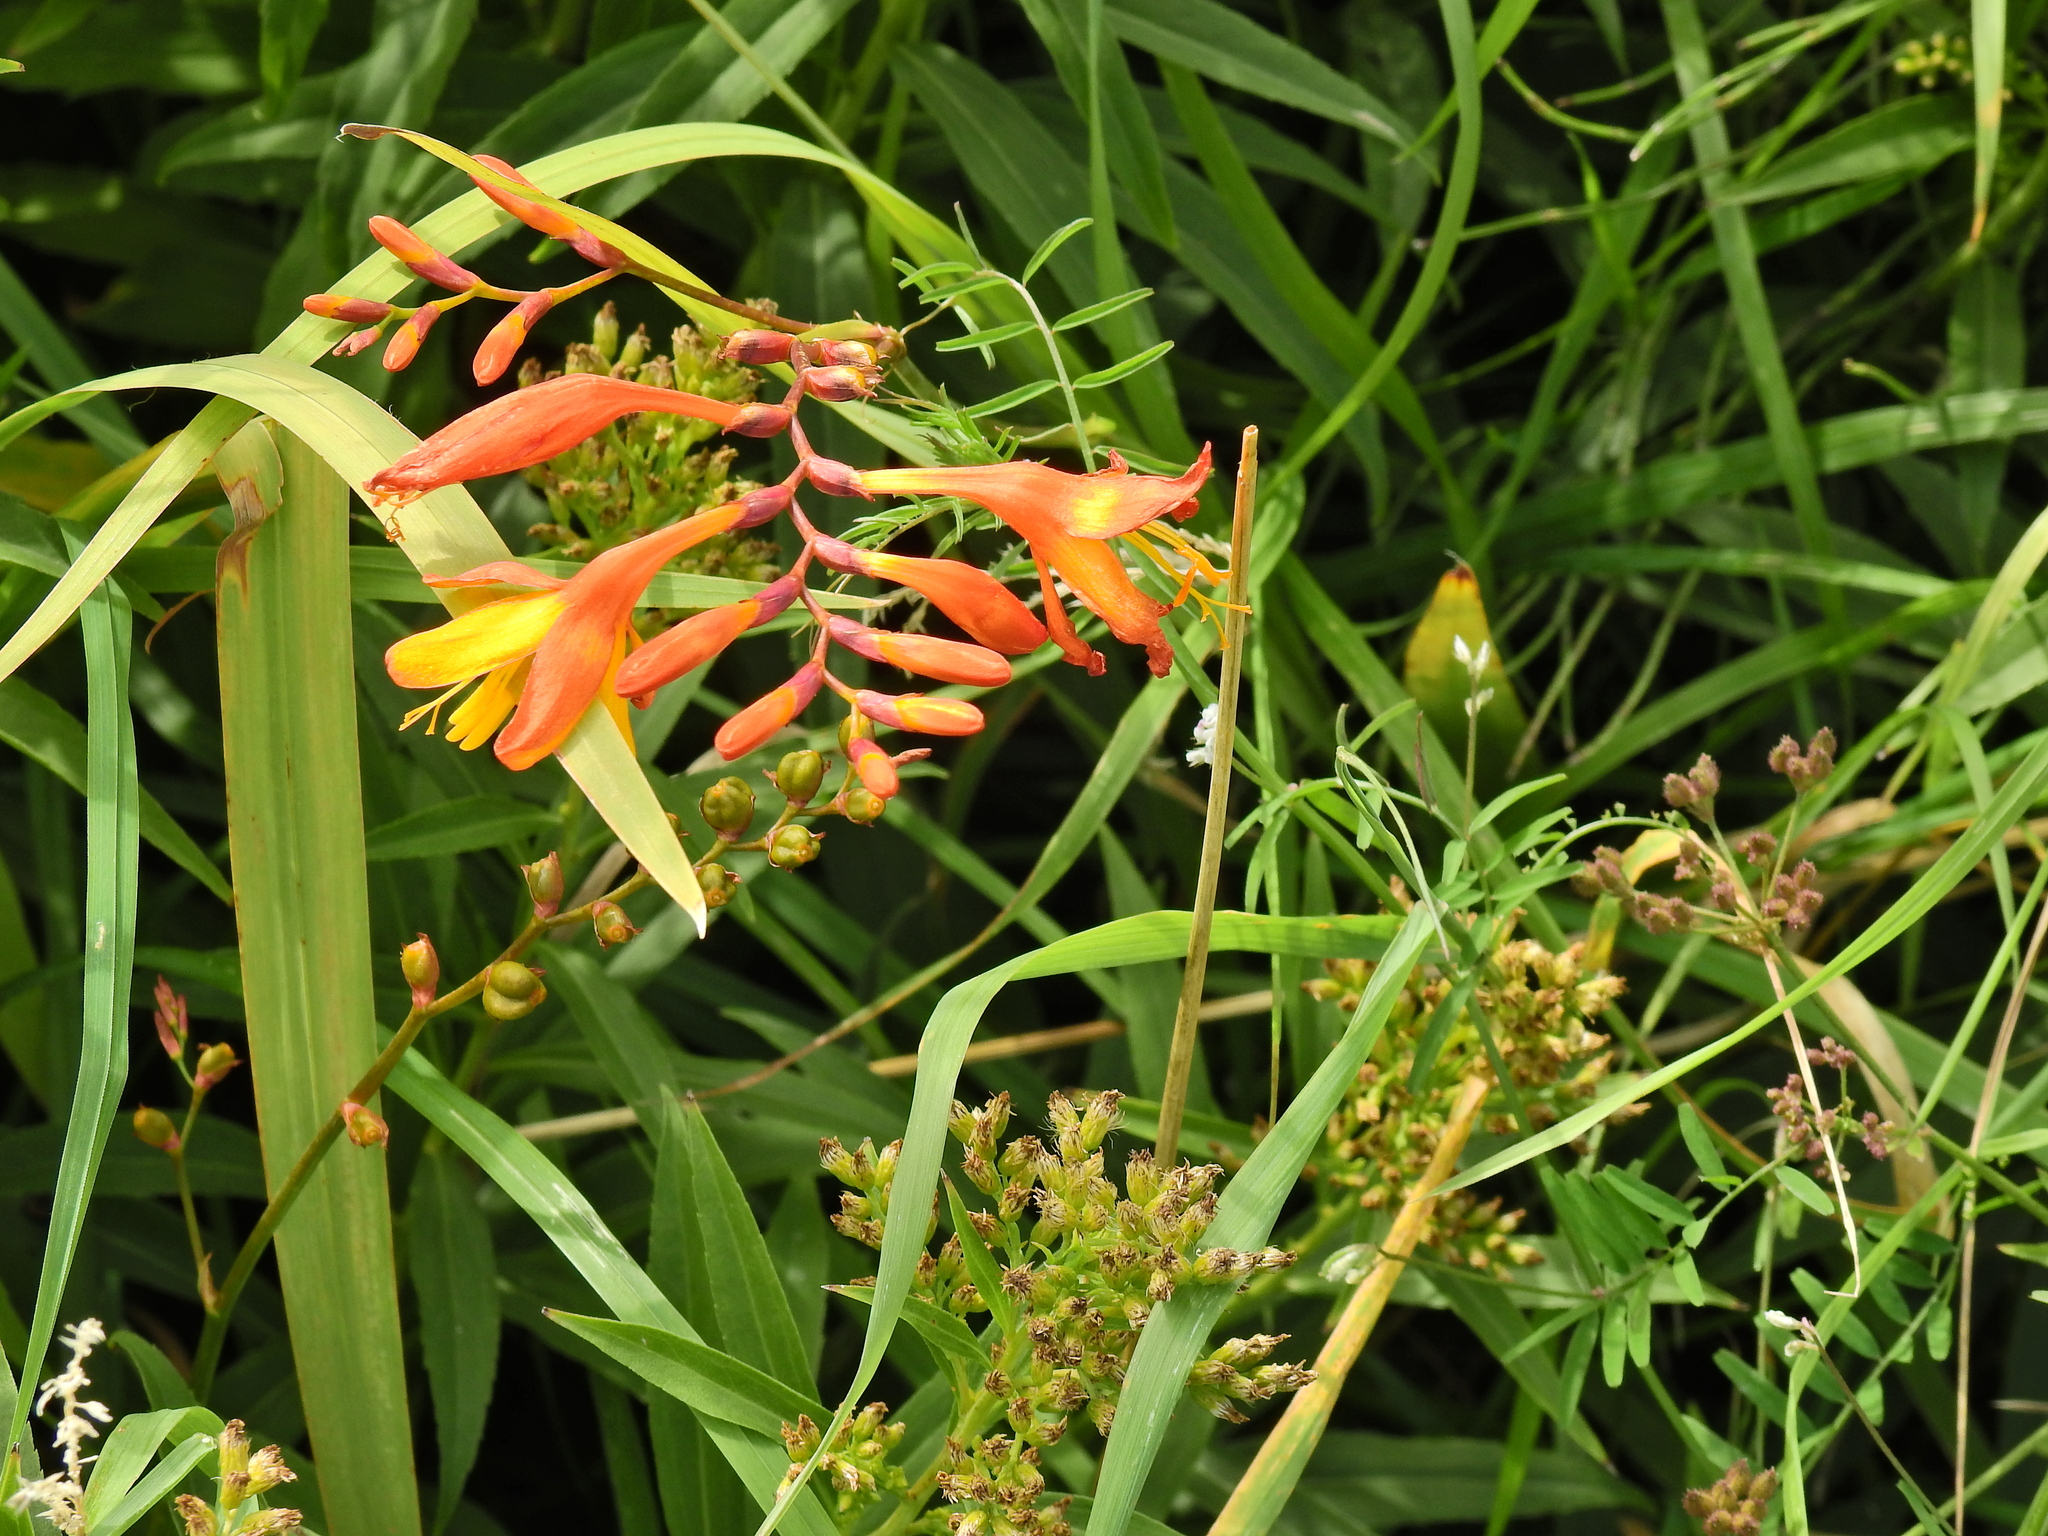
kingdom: Plantae
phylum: Tracheophyta
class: Liliopsida
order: Asparagales
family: Iridaceae
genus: Crocosmia
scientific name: Crocosmia crocosmiiflora
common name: Montbretia
